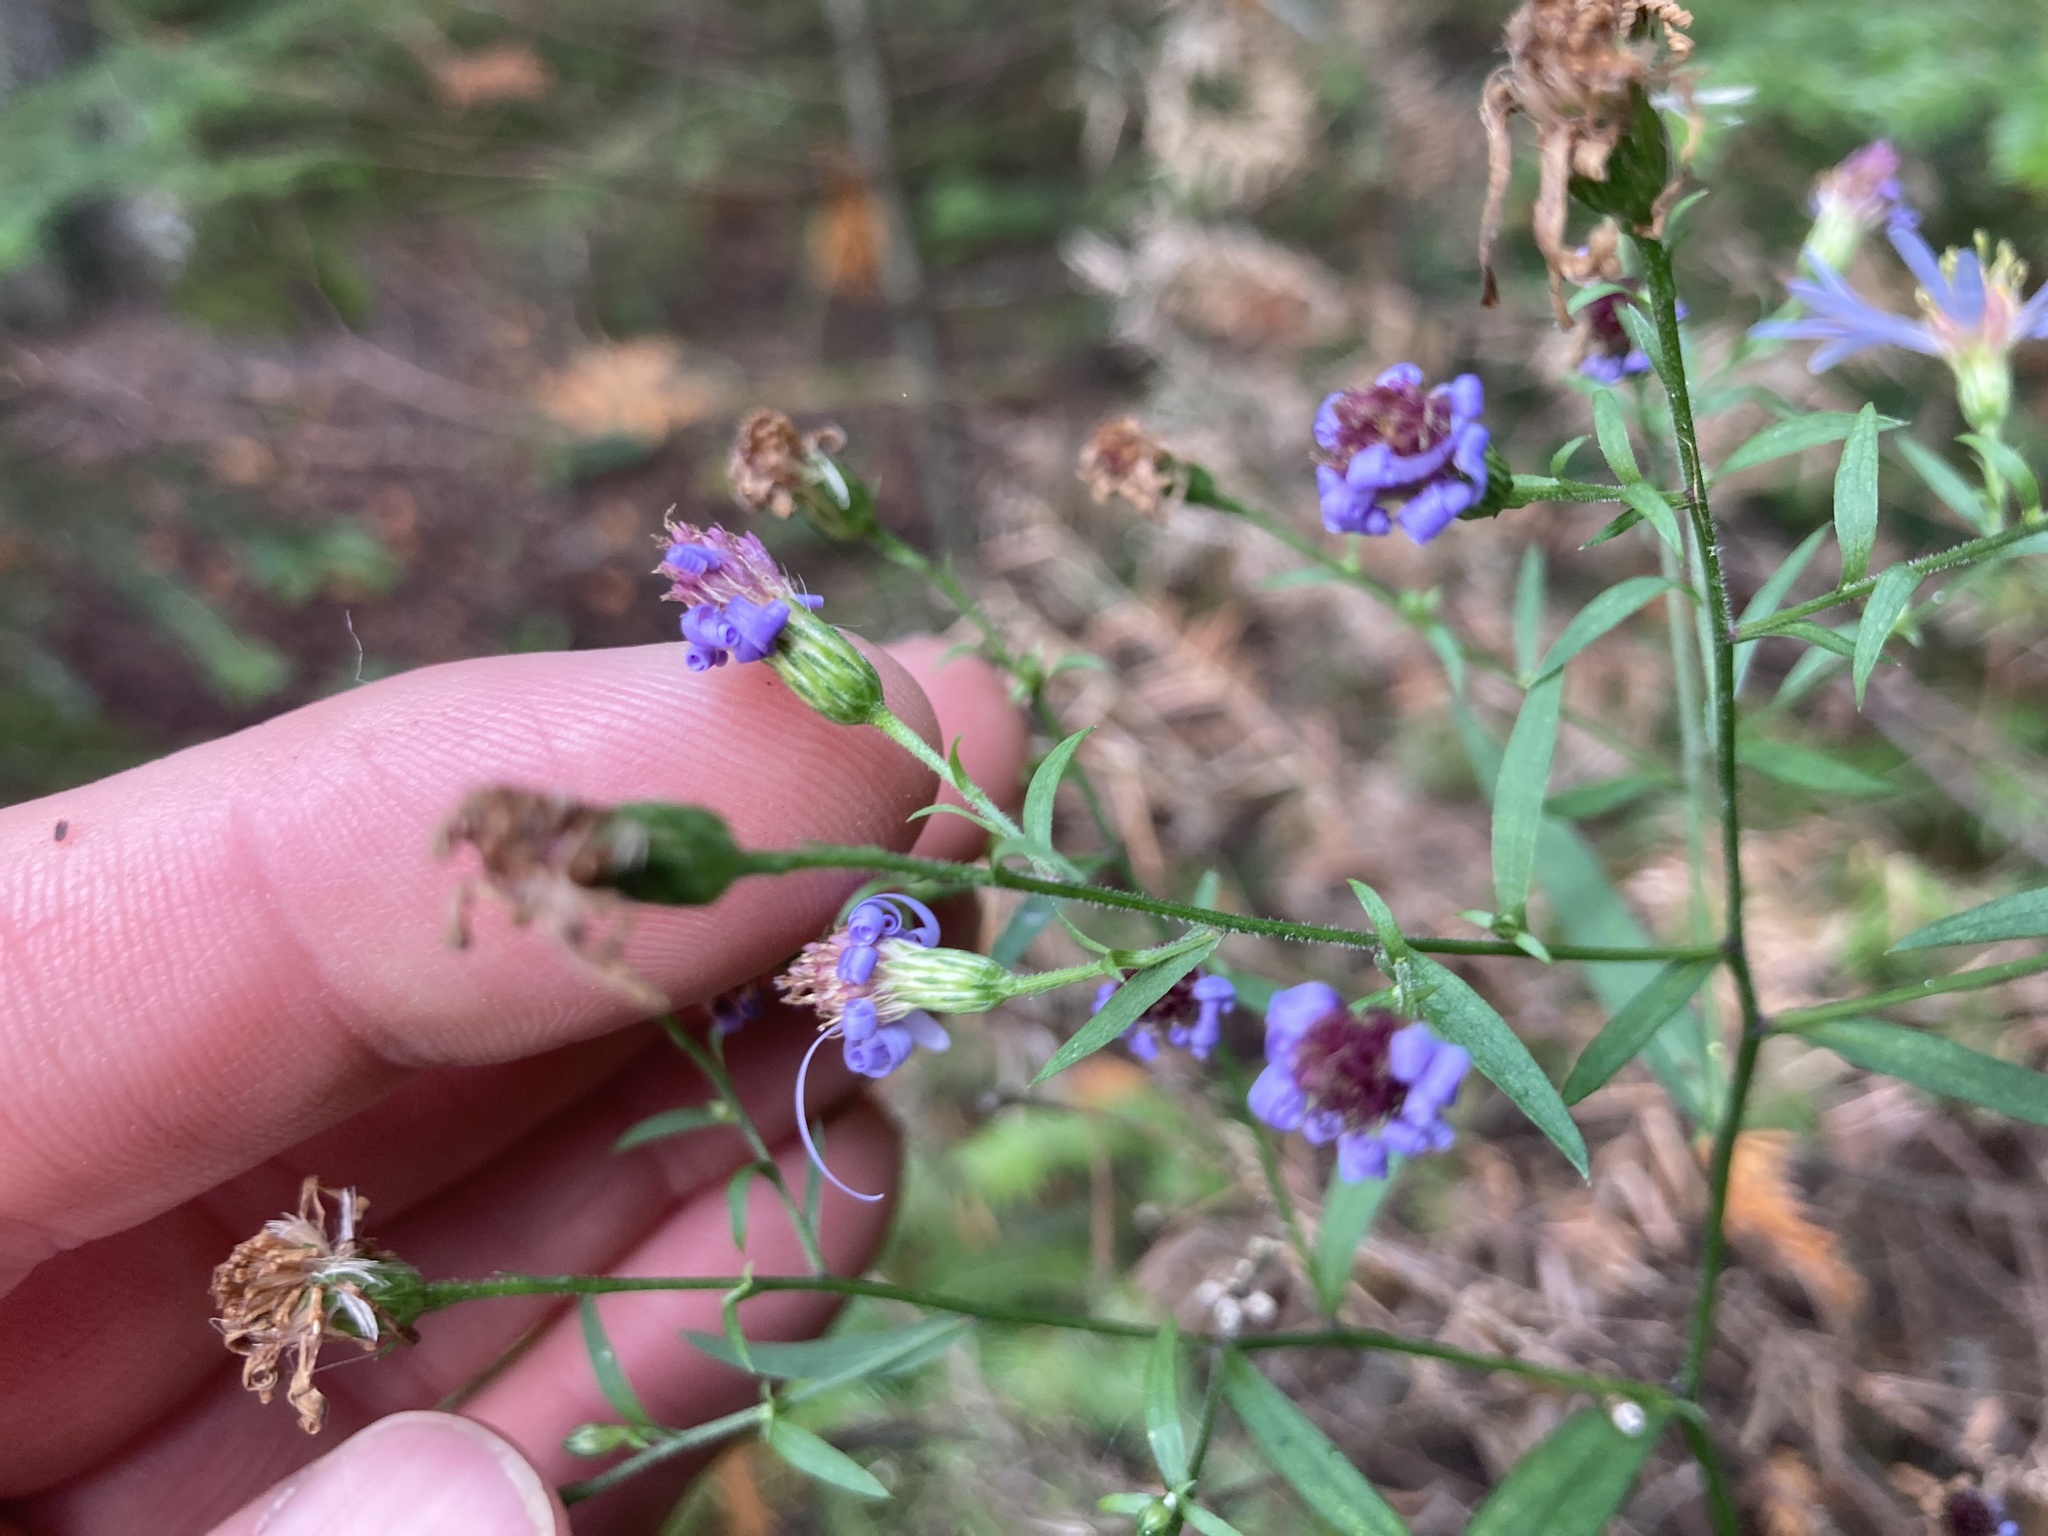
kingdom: Plantae
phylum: Tracheophyta
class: Magnoliopsida
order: Asterales
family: Asteraceae
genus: Symphyotrichum
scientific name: Symphyotrichum ciliolatum
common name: Fringed blue aster
